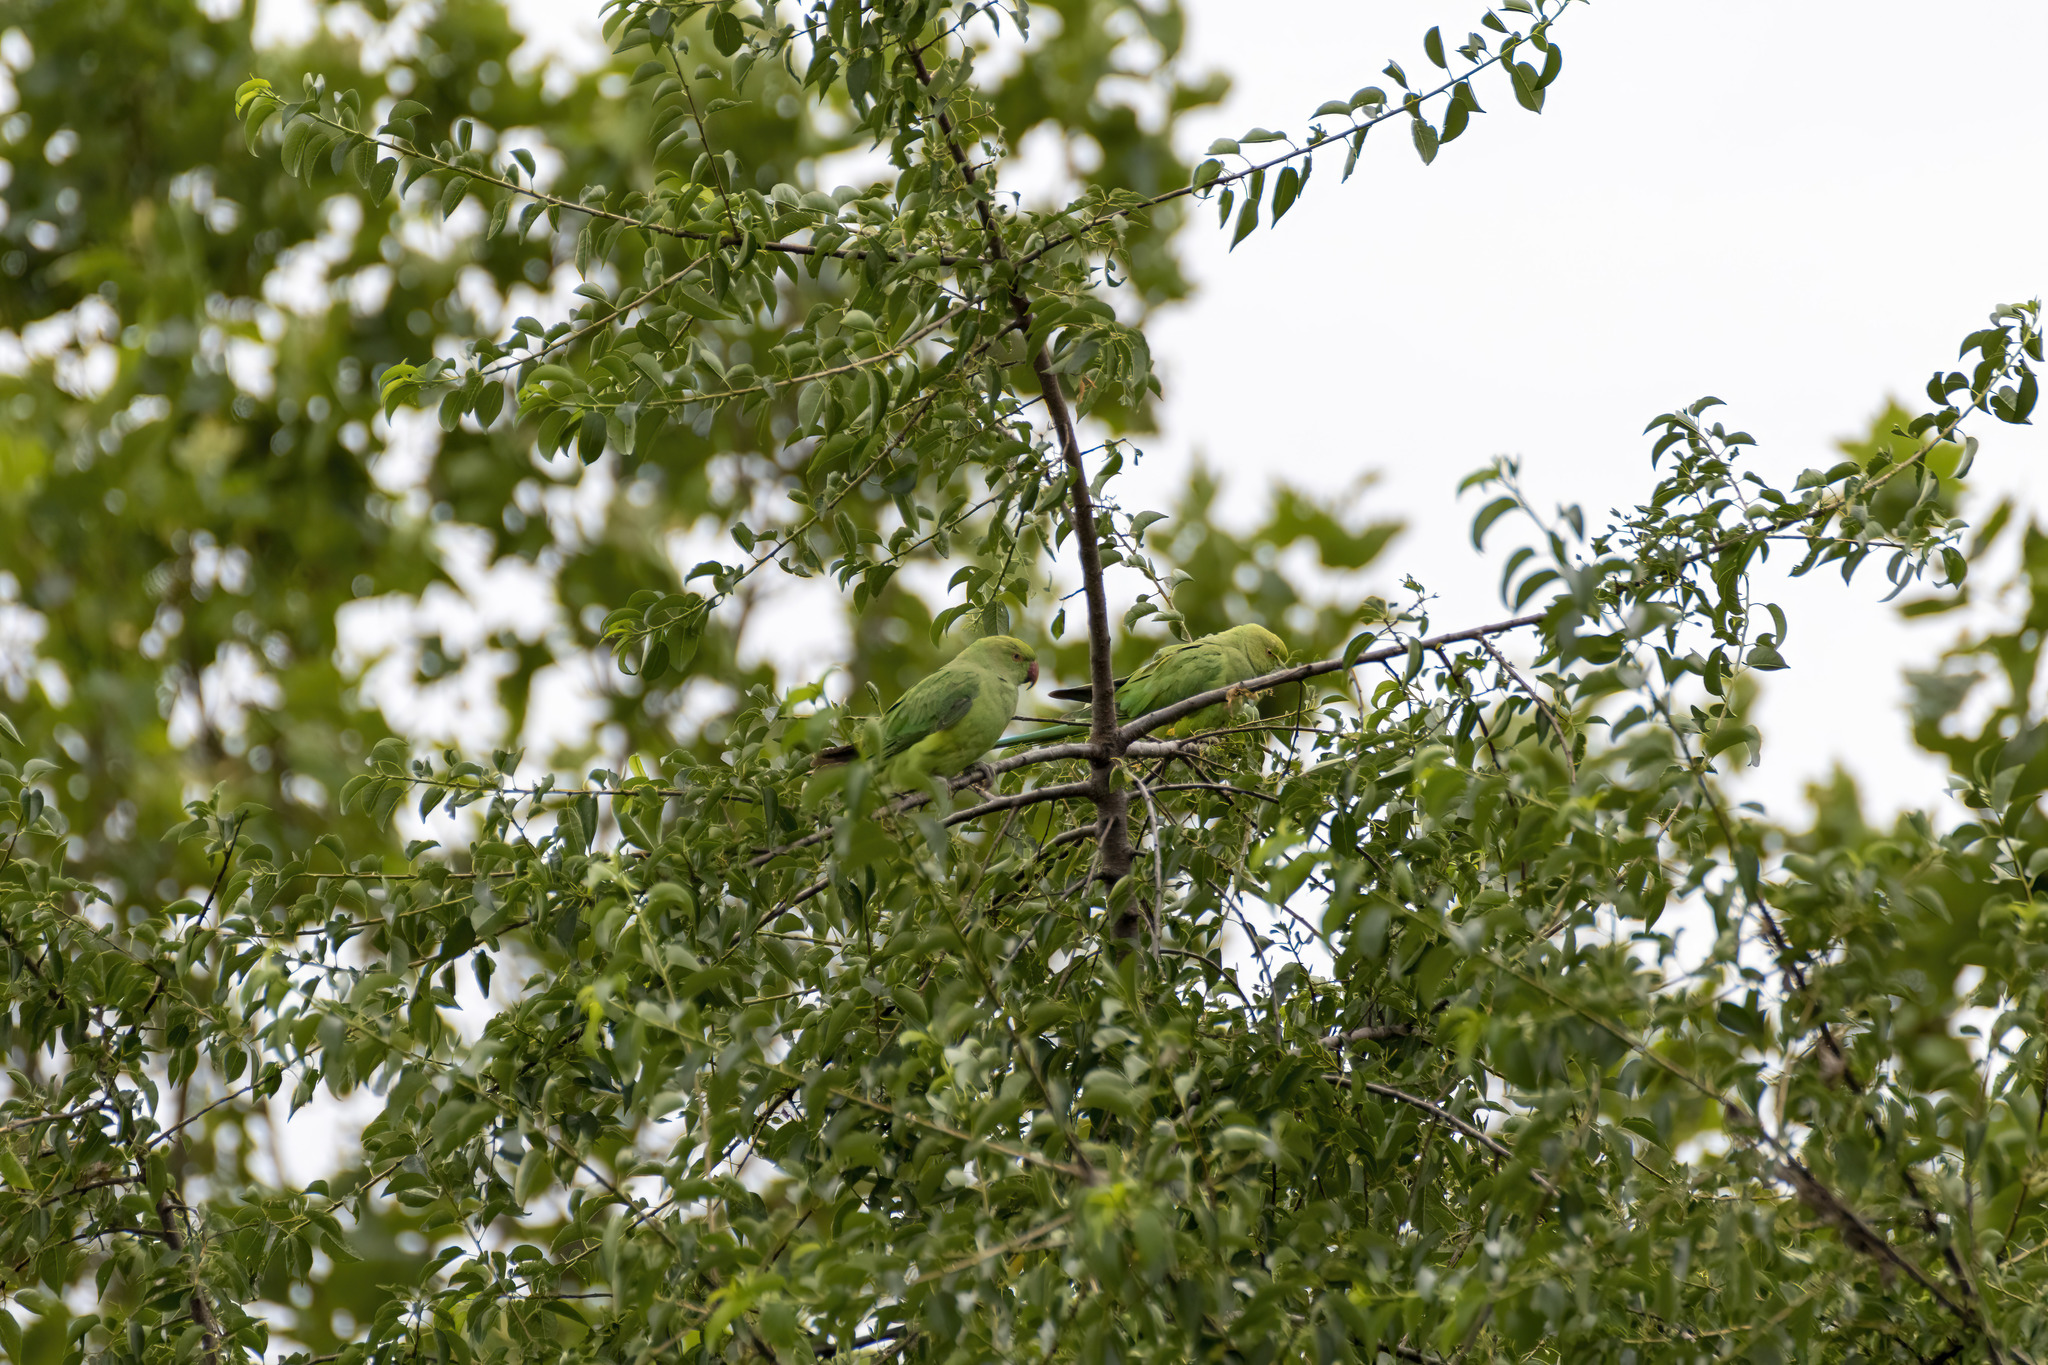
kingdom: Animalia
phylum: Chordata
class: Aves
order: Psittaciformes
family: Psittacidae
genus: Psittacula
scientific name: Psittacula krameri
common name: Rose-ringed parakeet
